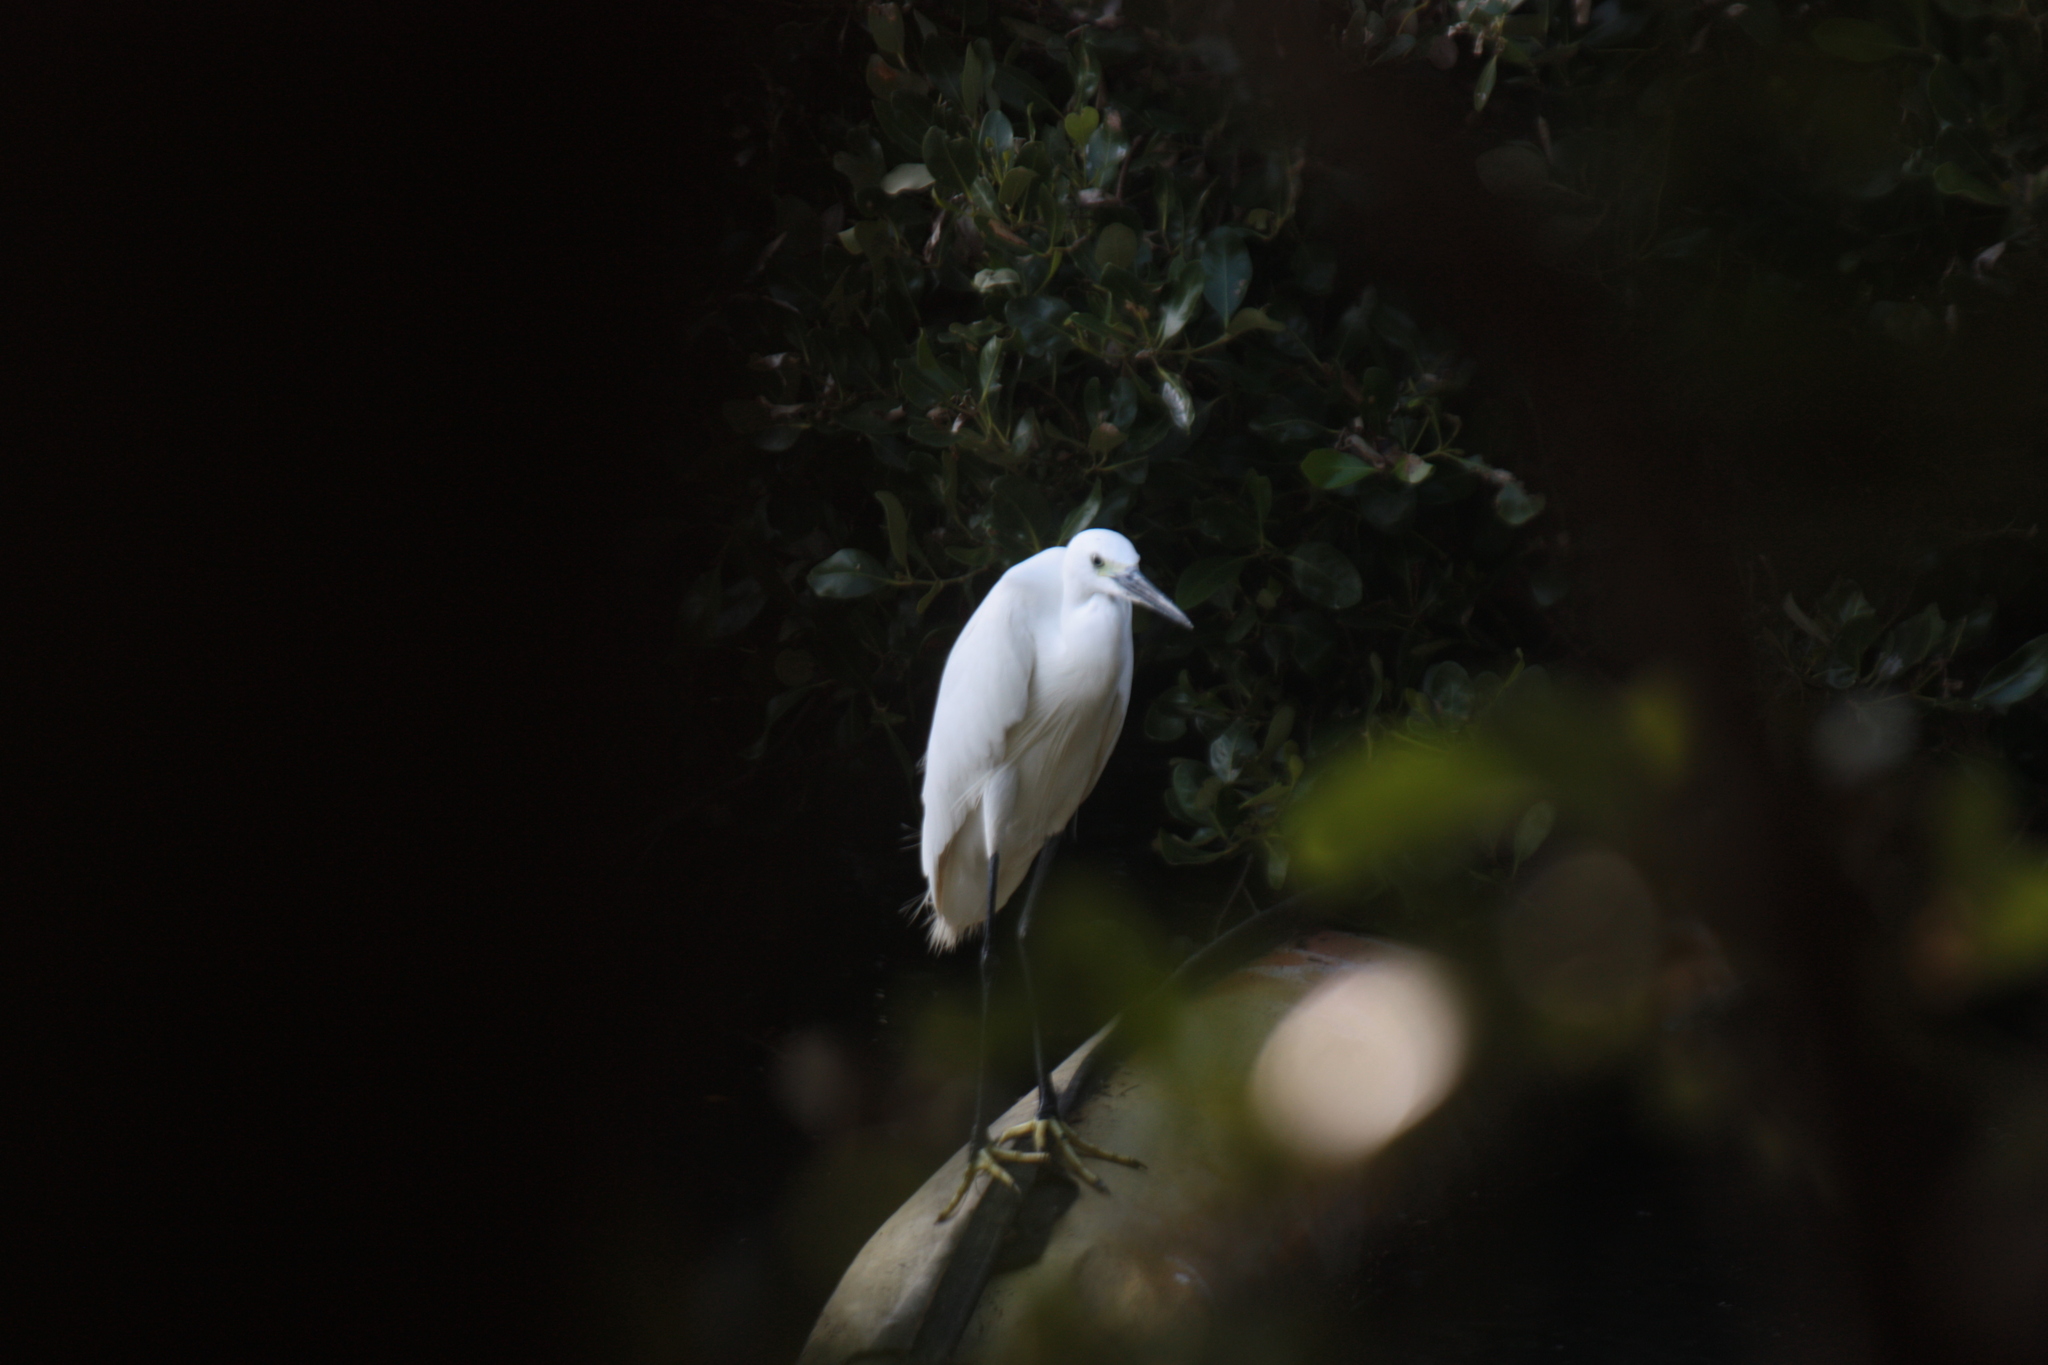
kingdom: Animalia
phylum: Chordata
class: Aves
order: Pelecaniformes
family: Ardeidae
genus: Egretta
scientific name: Egretta garzetta
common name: Little egret
